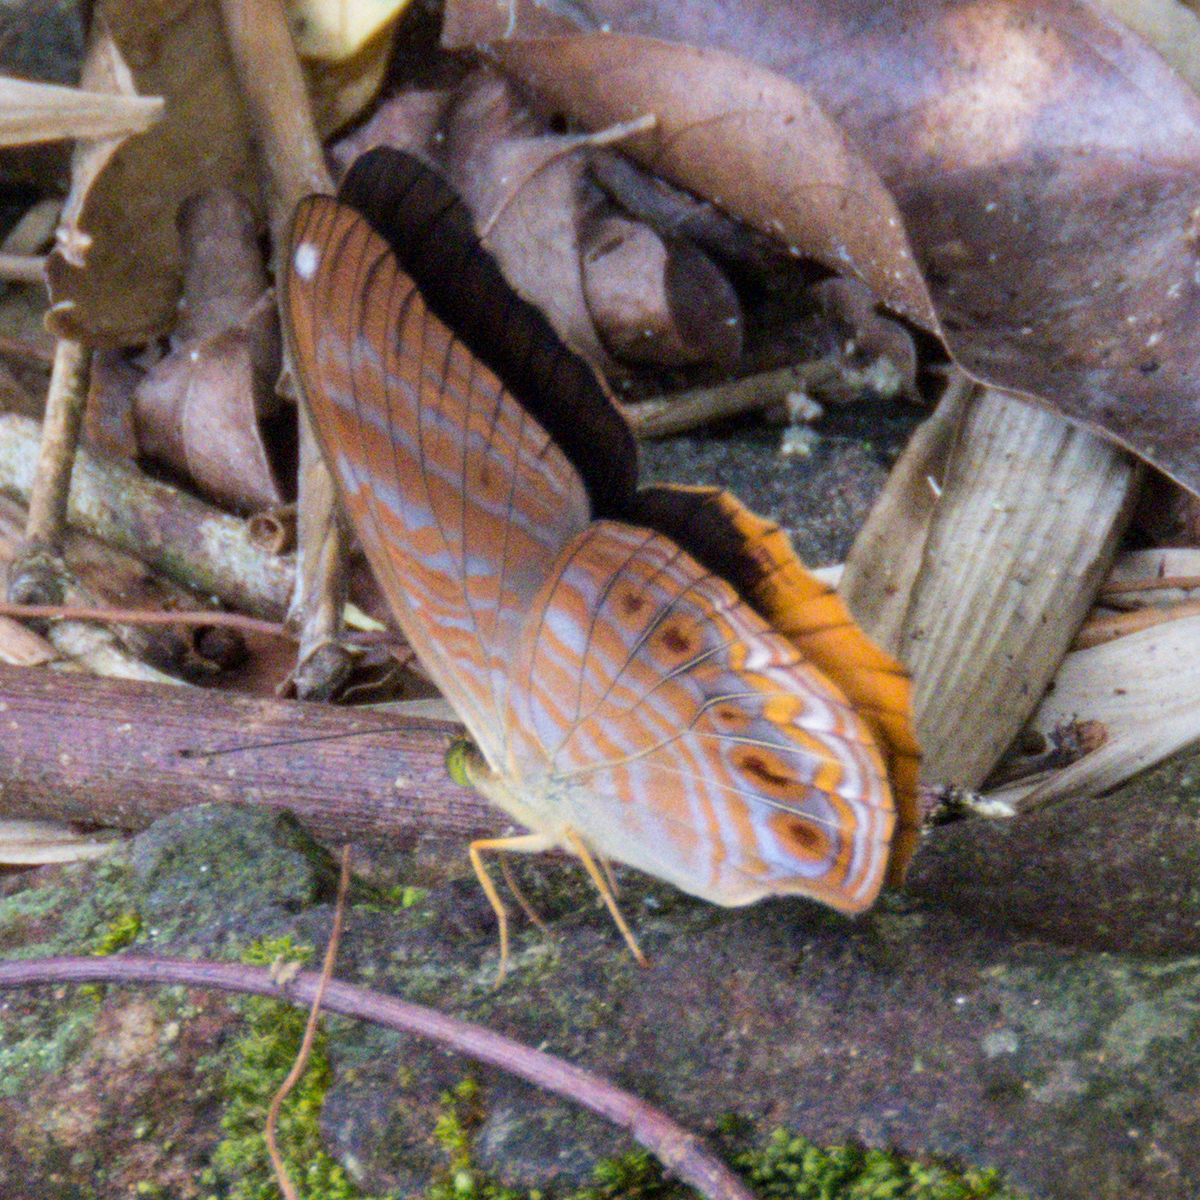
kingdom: Animalia
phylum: Arthropoda
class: Insecta
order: Lepidoptera
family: Nymphalidae
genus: Terinos
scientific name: Terinos terpander
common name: Royal assyrian
